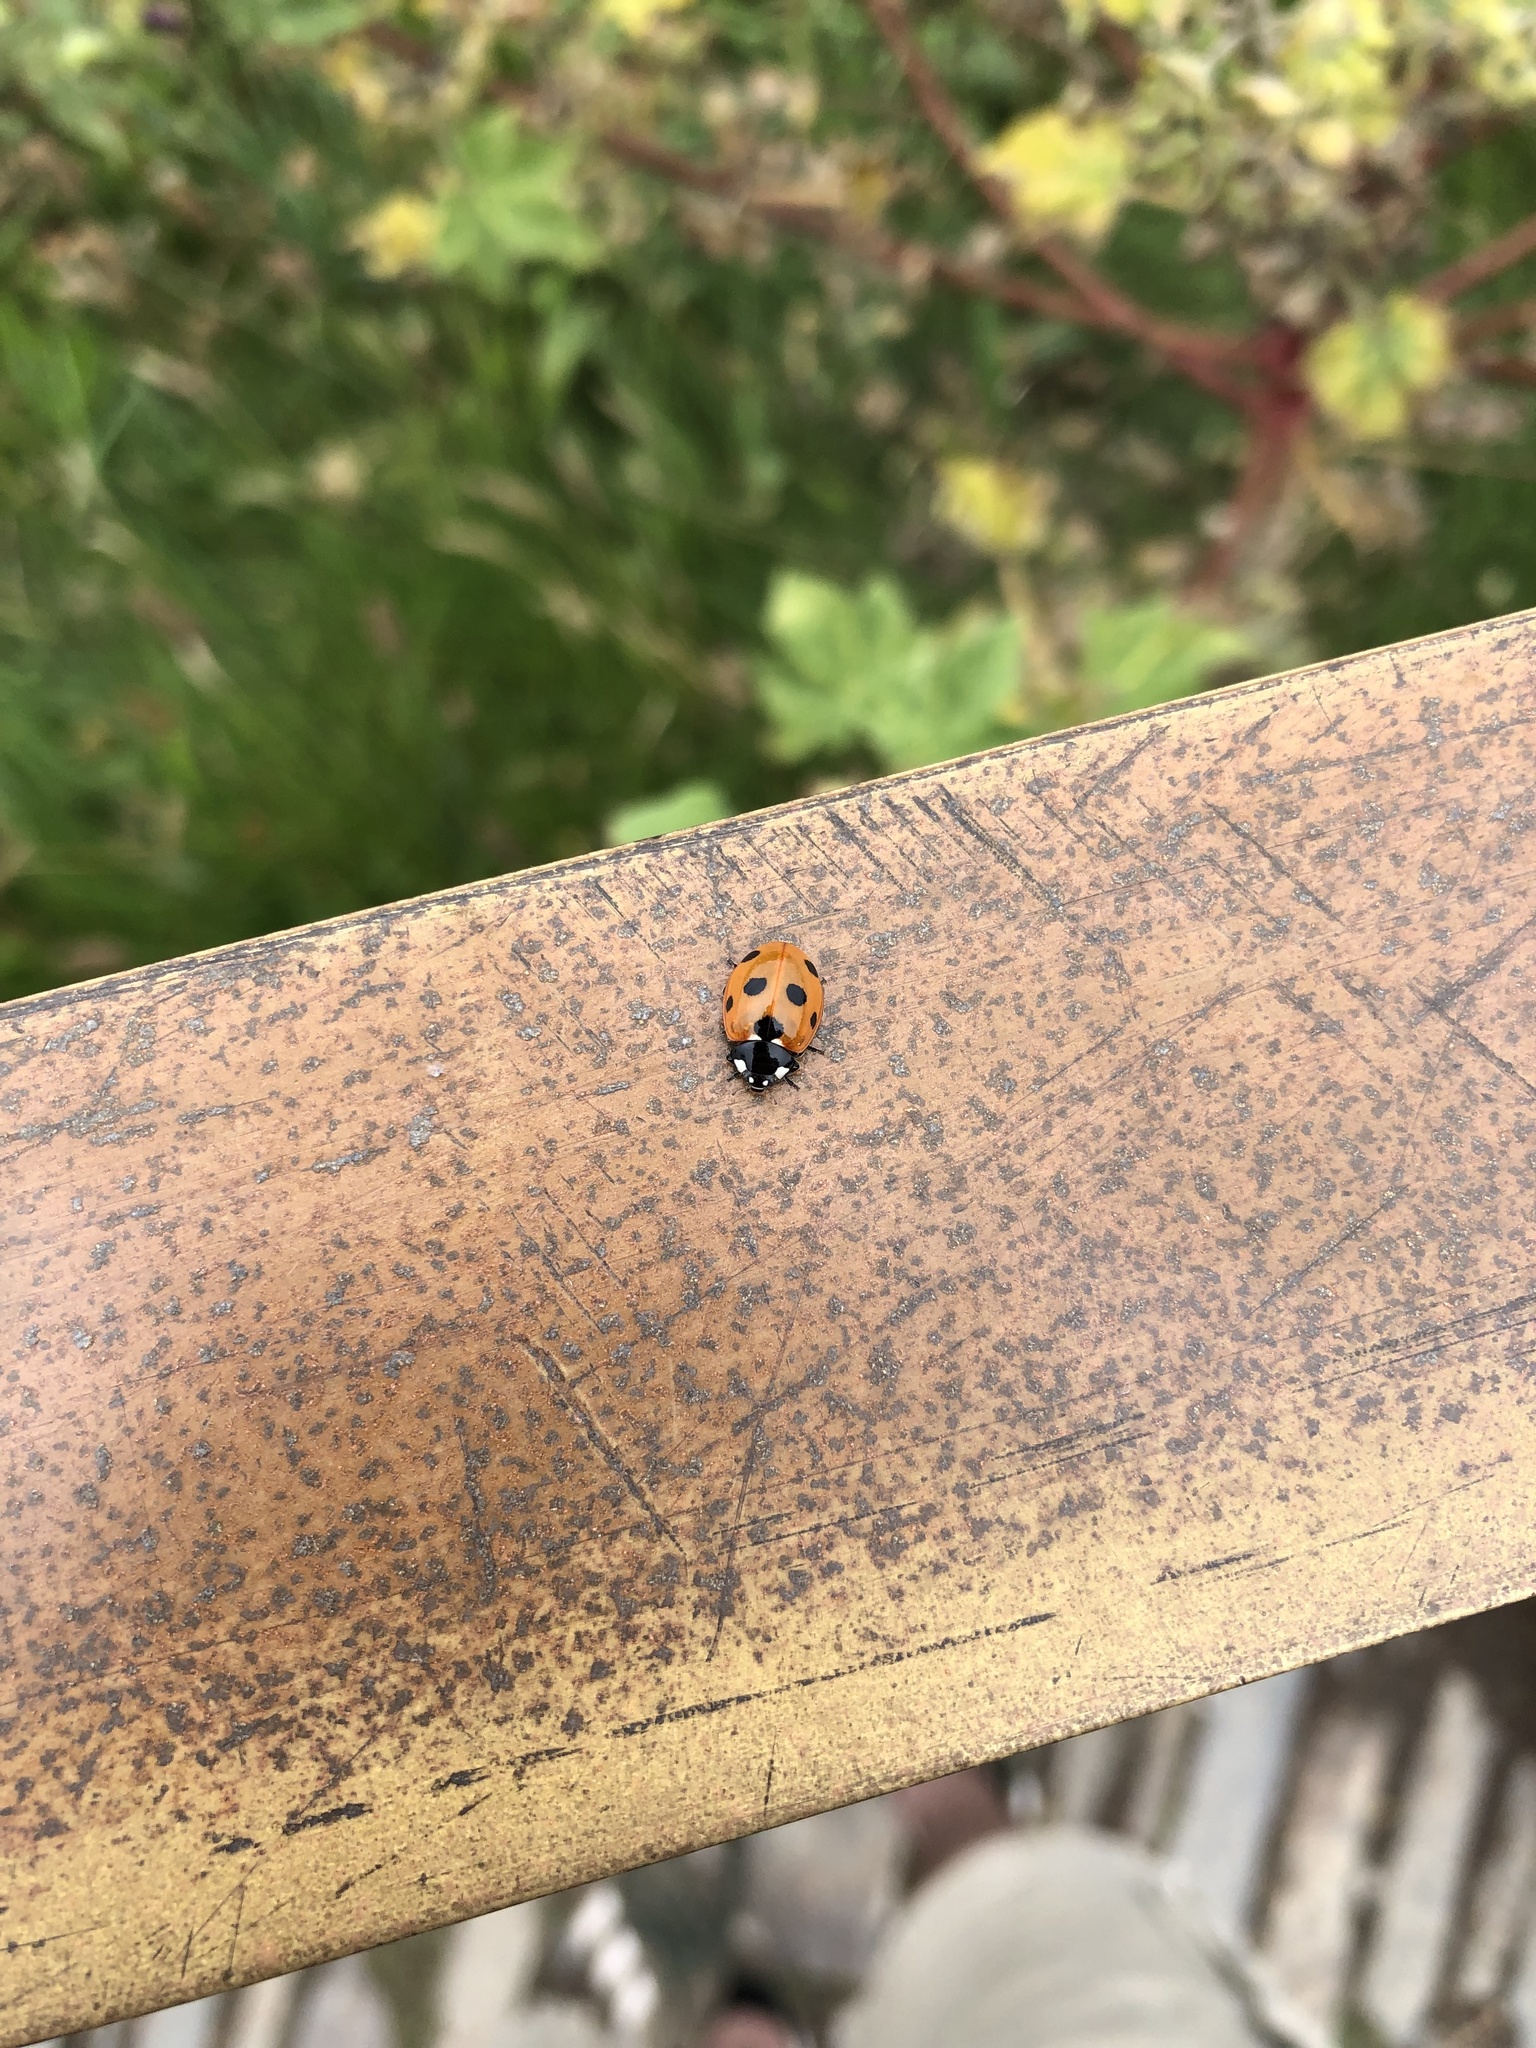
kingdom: Animalia
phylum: Arthropoda
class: Insecta
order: Coleoptera
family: Coccinellidae
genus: Coccinella
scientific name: Coccinella septempunctata
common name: Sevenspotted lady beetle
